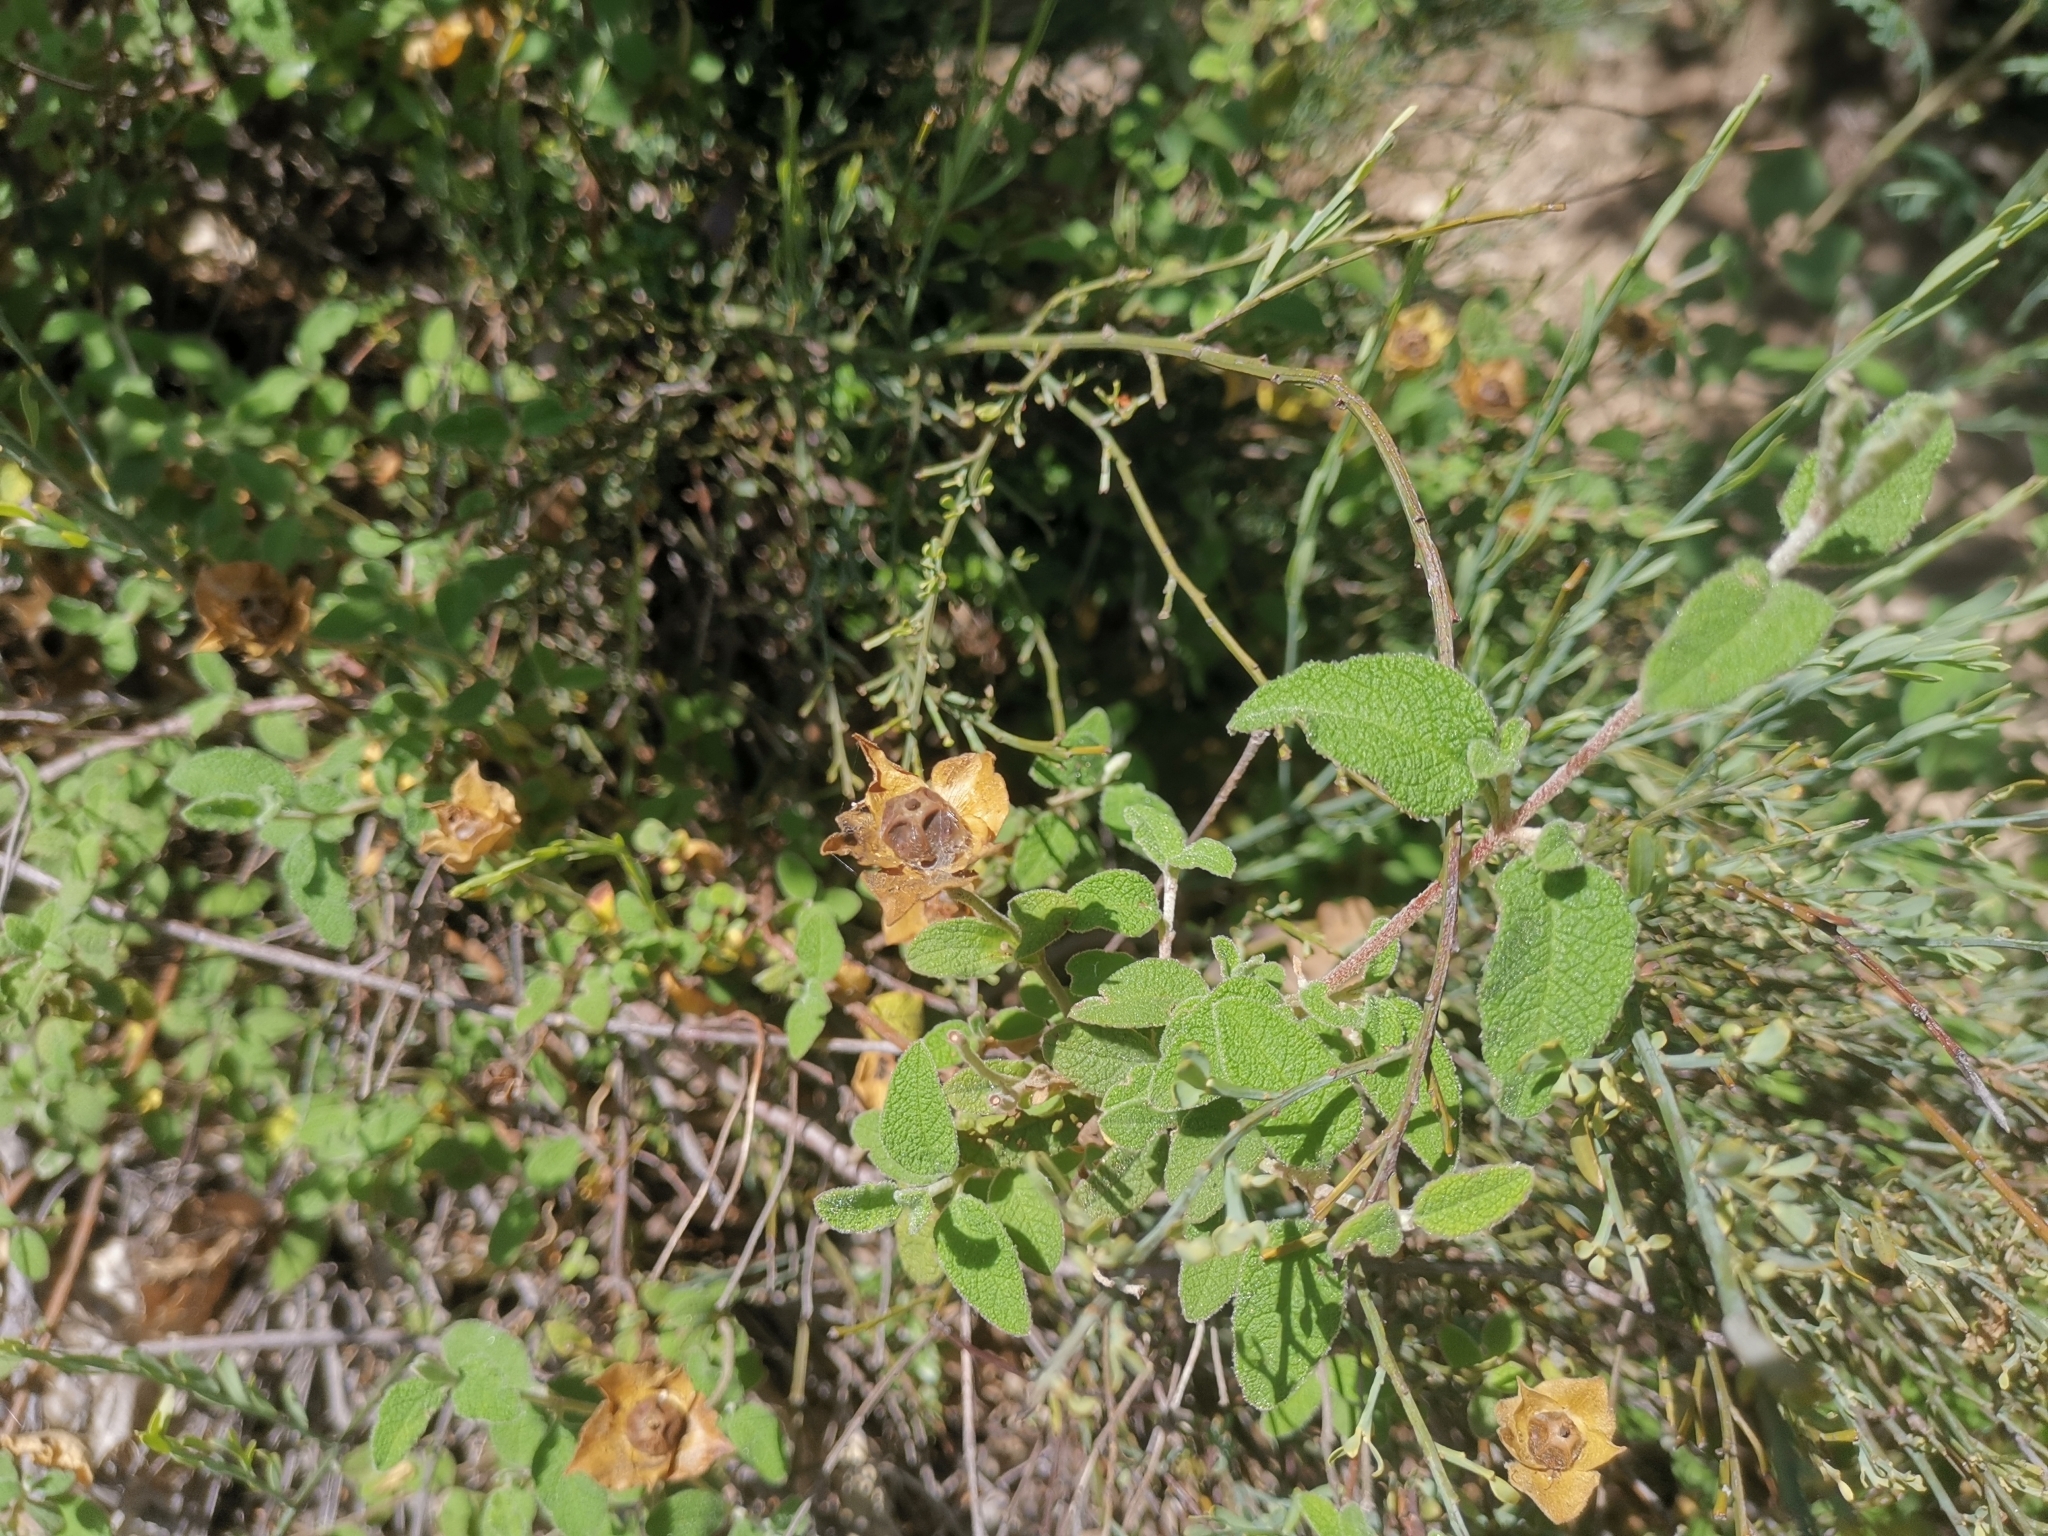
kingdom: Plantae
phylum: Tracheophyta
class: Magnoliopsida
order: Malvales
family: Cistaceae
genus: Cistus
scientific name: Cistus salviifolius
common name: Salvia cistus
